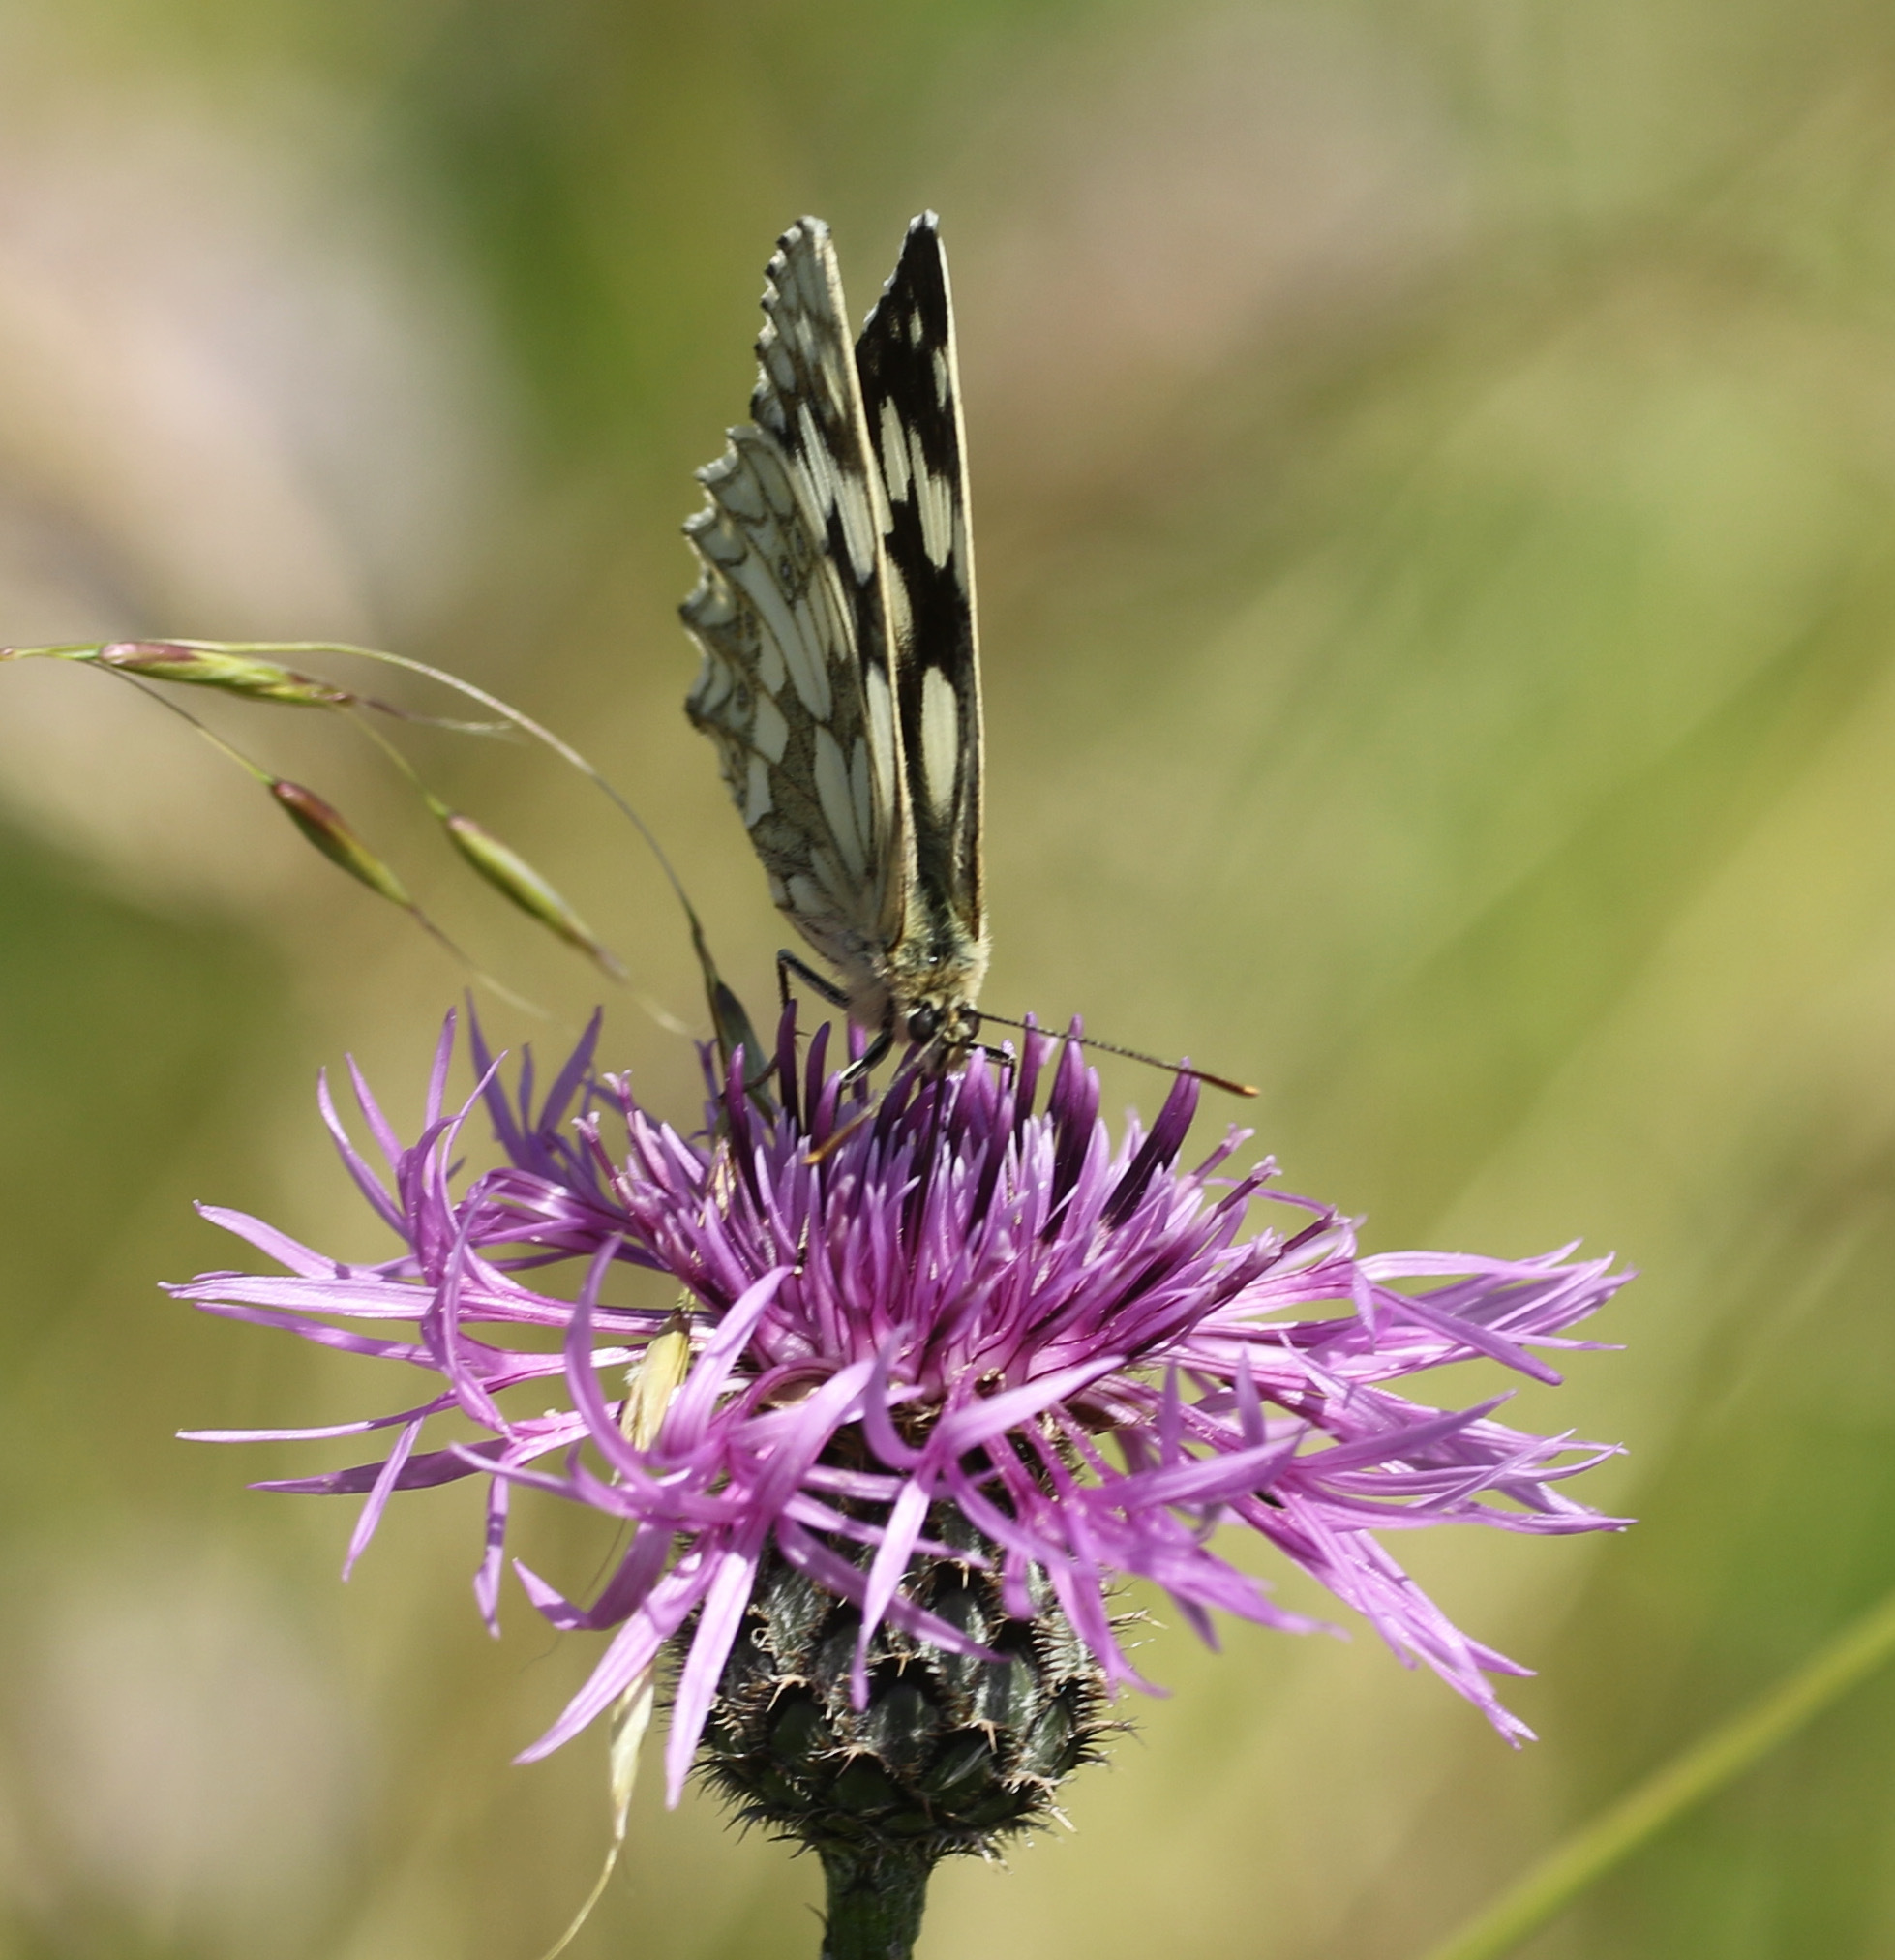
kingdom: Animalia
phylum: Arthropoda
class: Insecta
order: Lepidoptera
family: Nymphalidae
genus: Melanargia
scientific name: Melanargia galathea
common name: Marbled white
